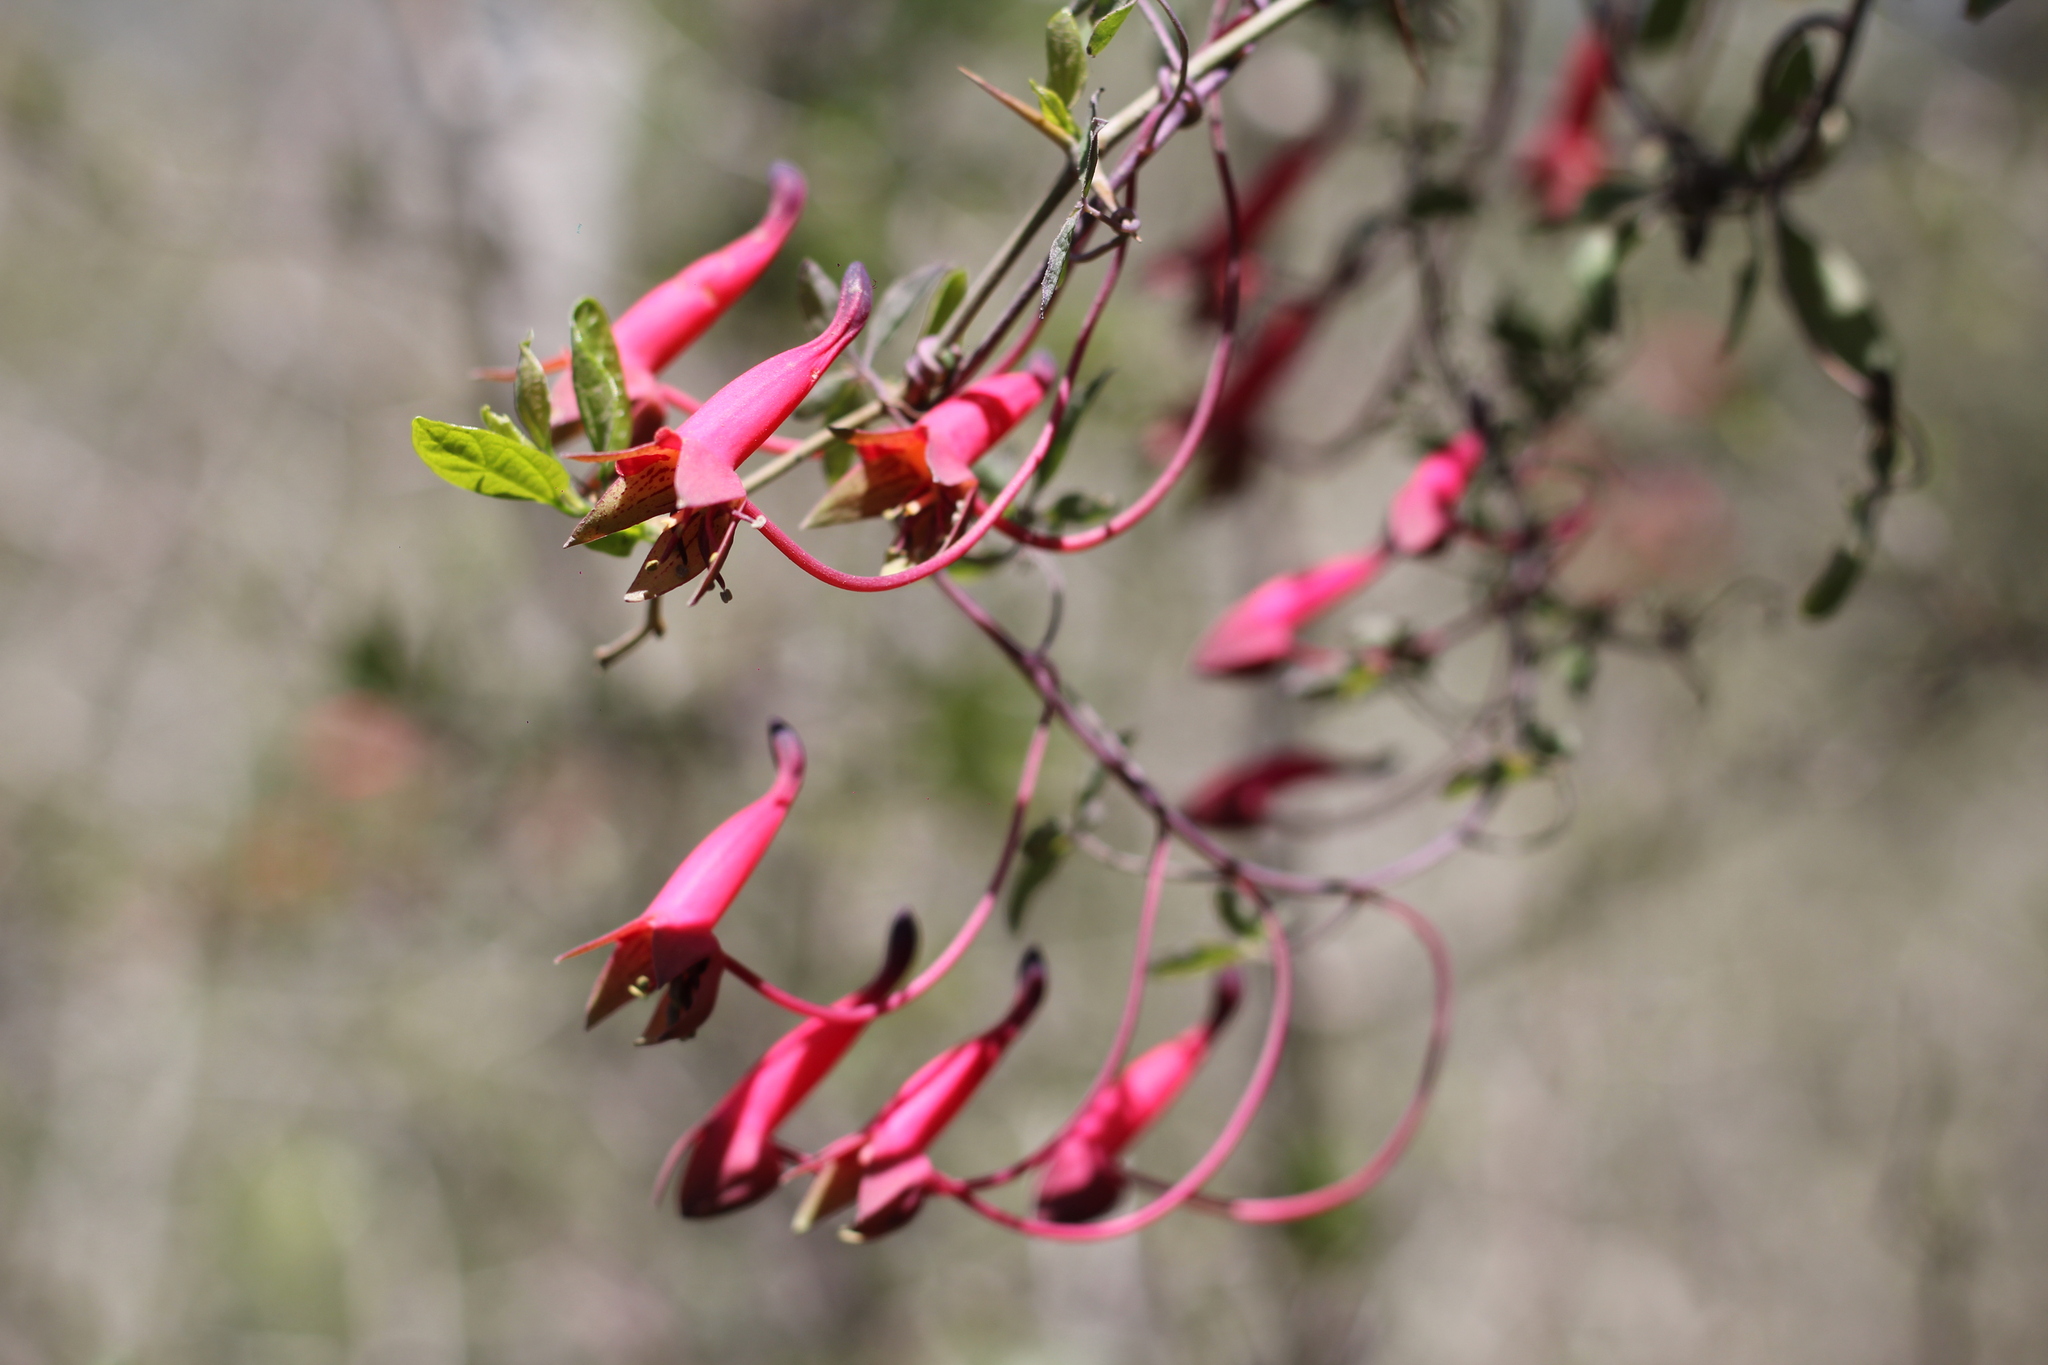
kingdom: Plantae
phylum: Tracheophyta
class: Magnoliopsida
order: Brassicales
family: Tropaeolaceae
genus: Tropaeolum
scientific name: Tropaeolum pentaphyllum
